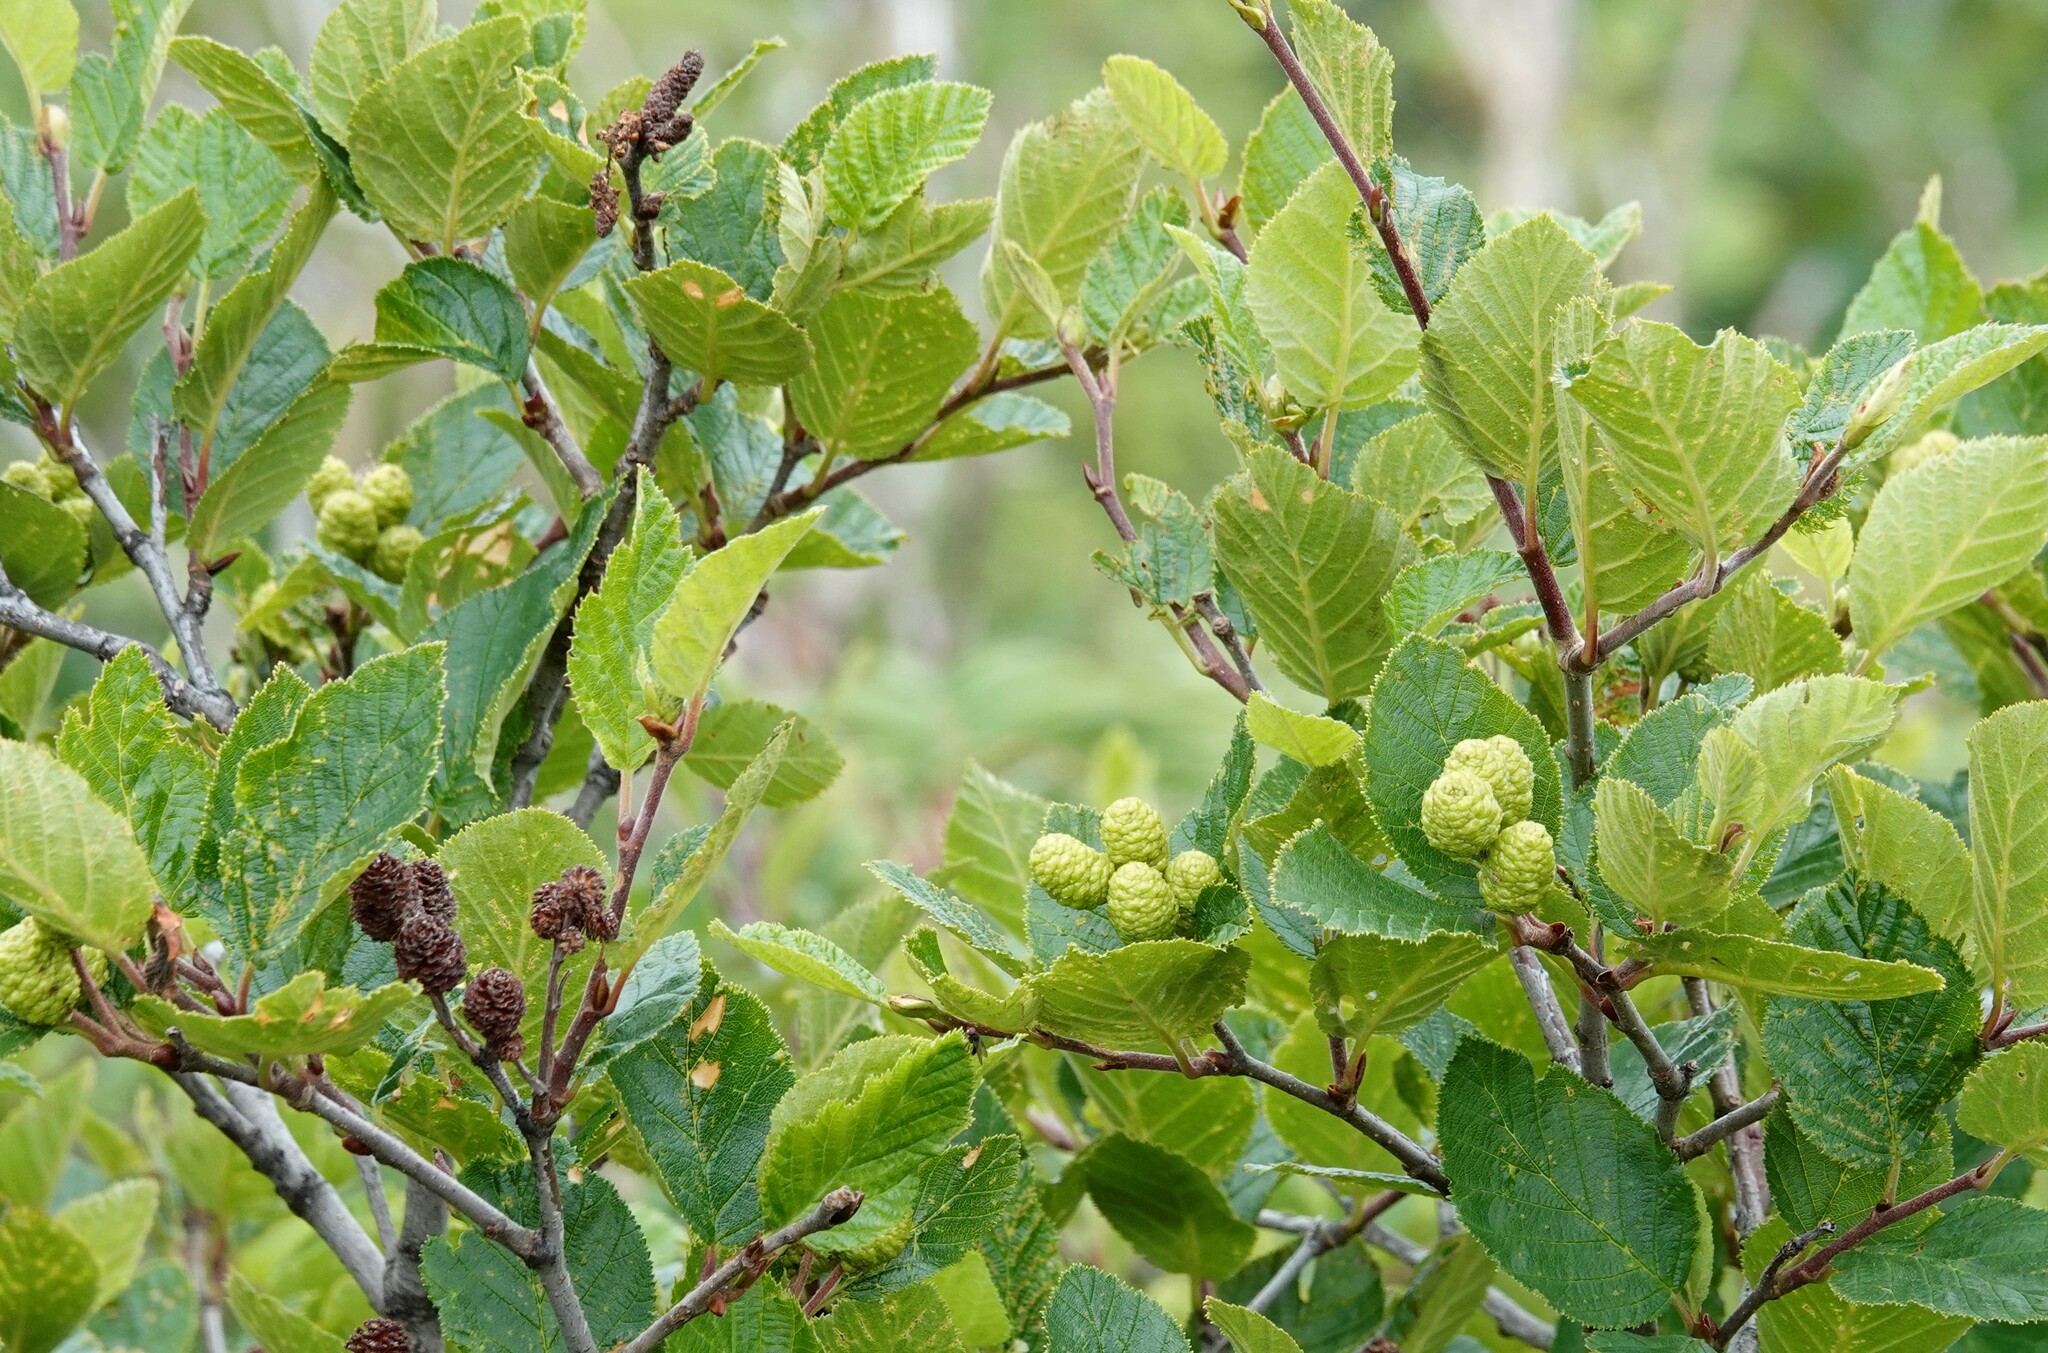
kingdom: Plantae
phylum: Tracheophyta
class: Magnoliopsida
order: Fagales
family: Betulaceae
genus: Alnus
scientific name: Alnus alnobetula
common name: Green alder
